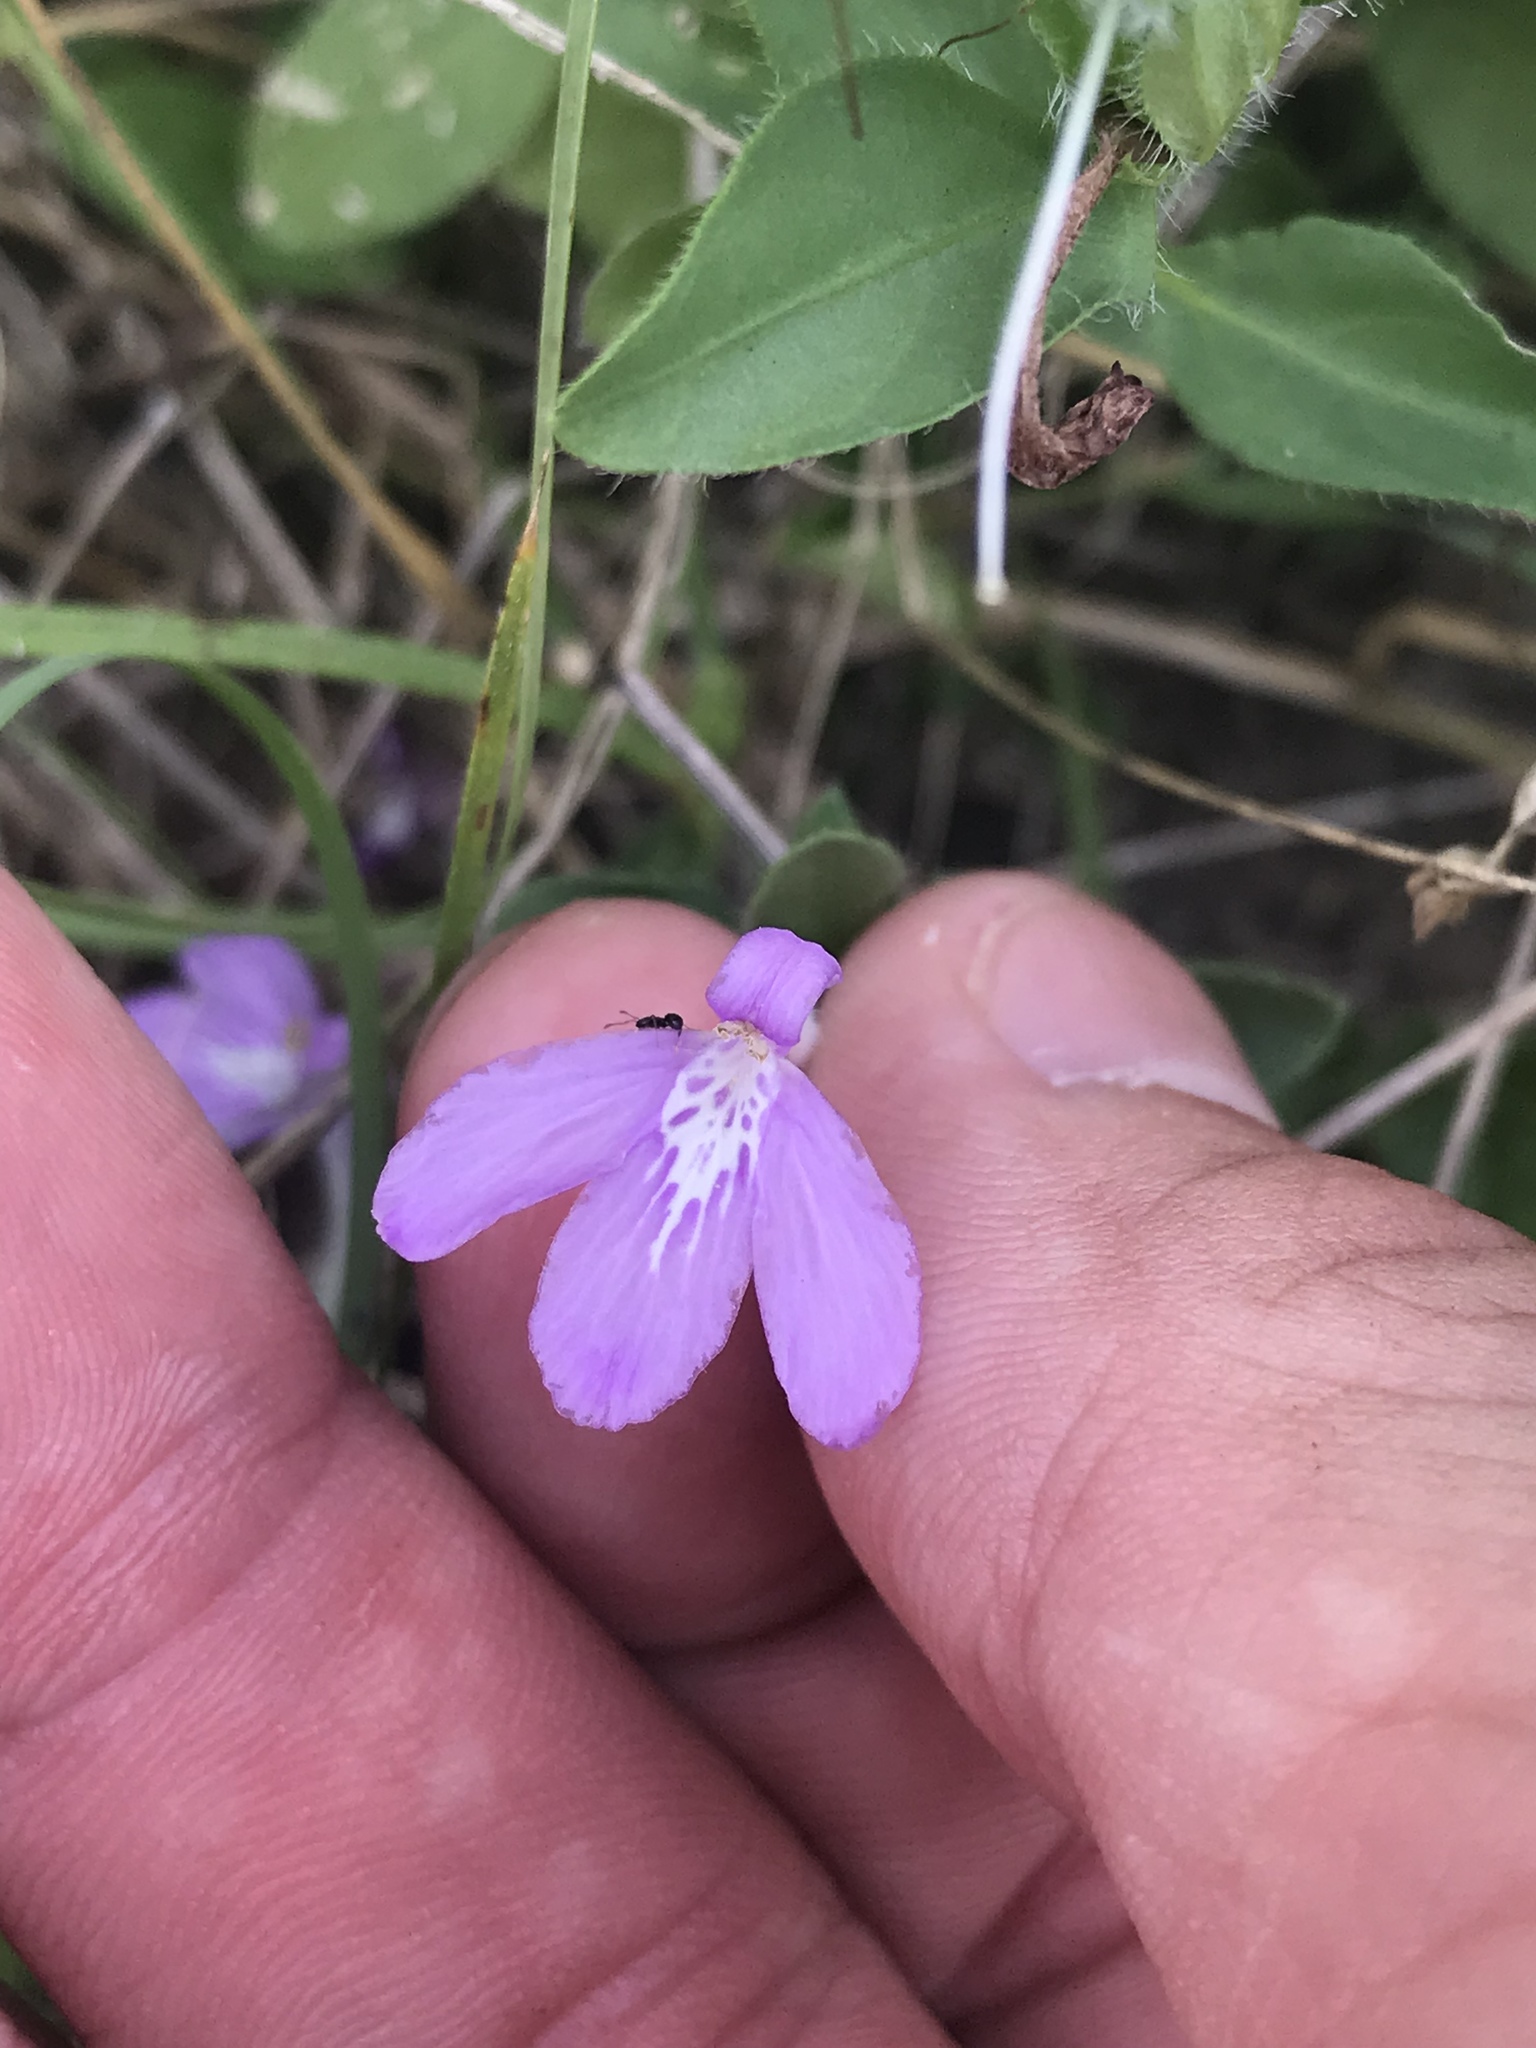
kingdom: Plantae
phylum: Tracheophyta
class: Magnoliopsida
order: Lamiales
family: Acanthaceae
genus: Justicia
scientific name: Justicia pilosella
